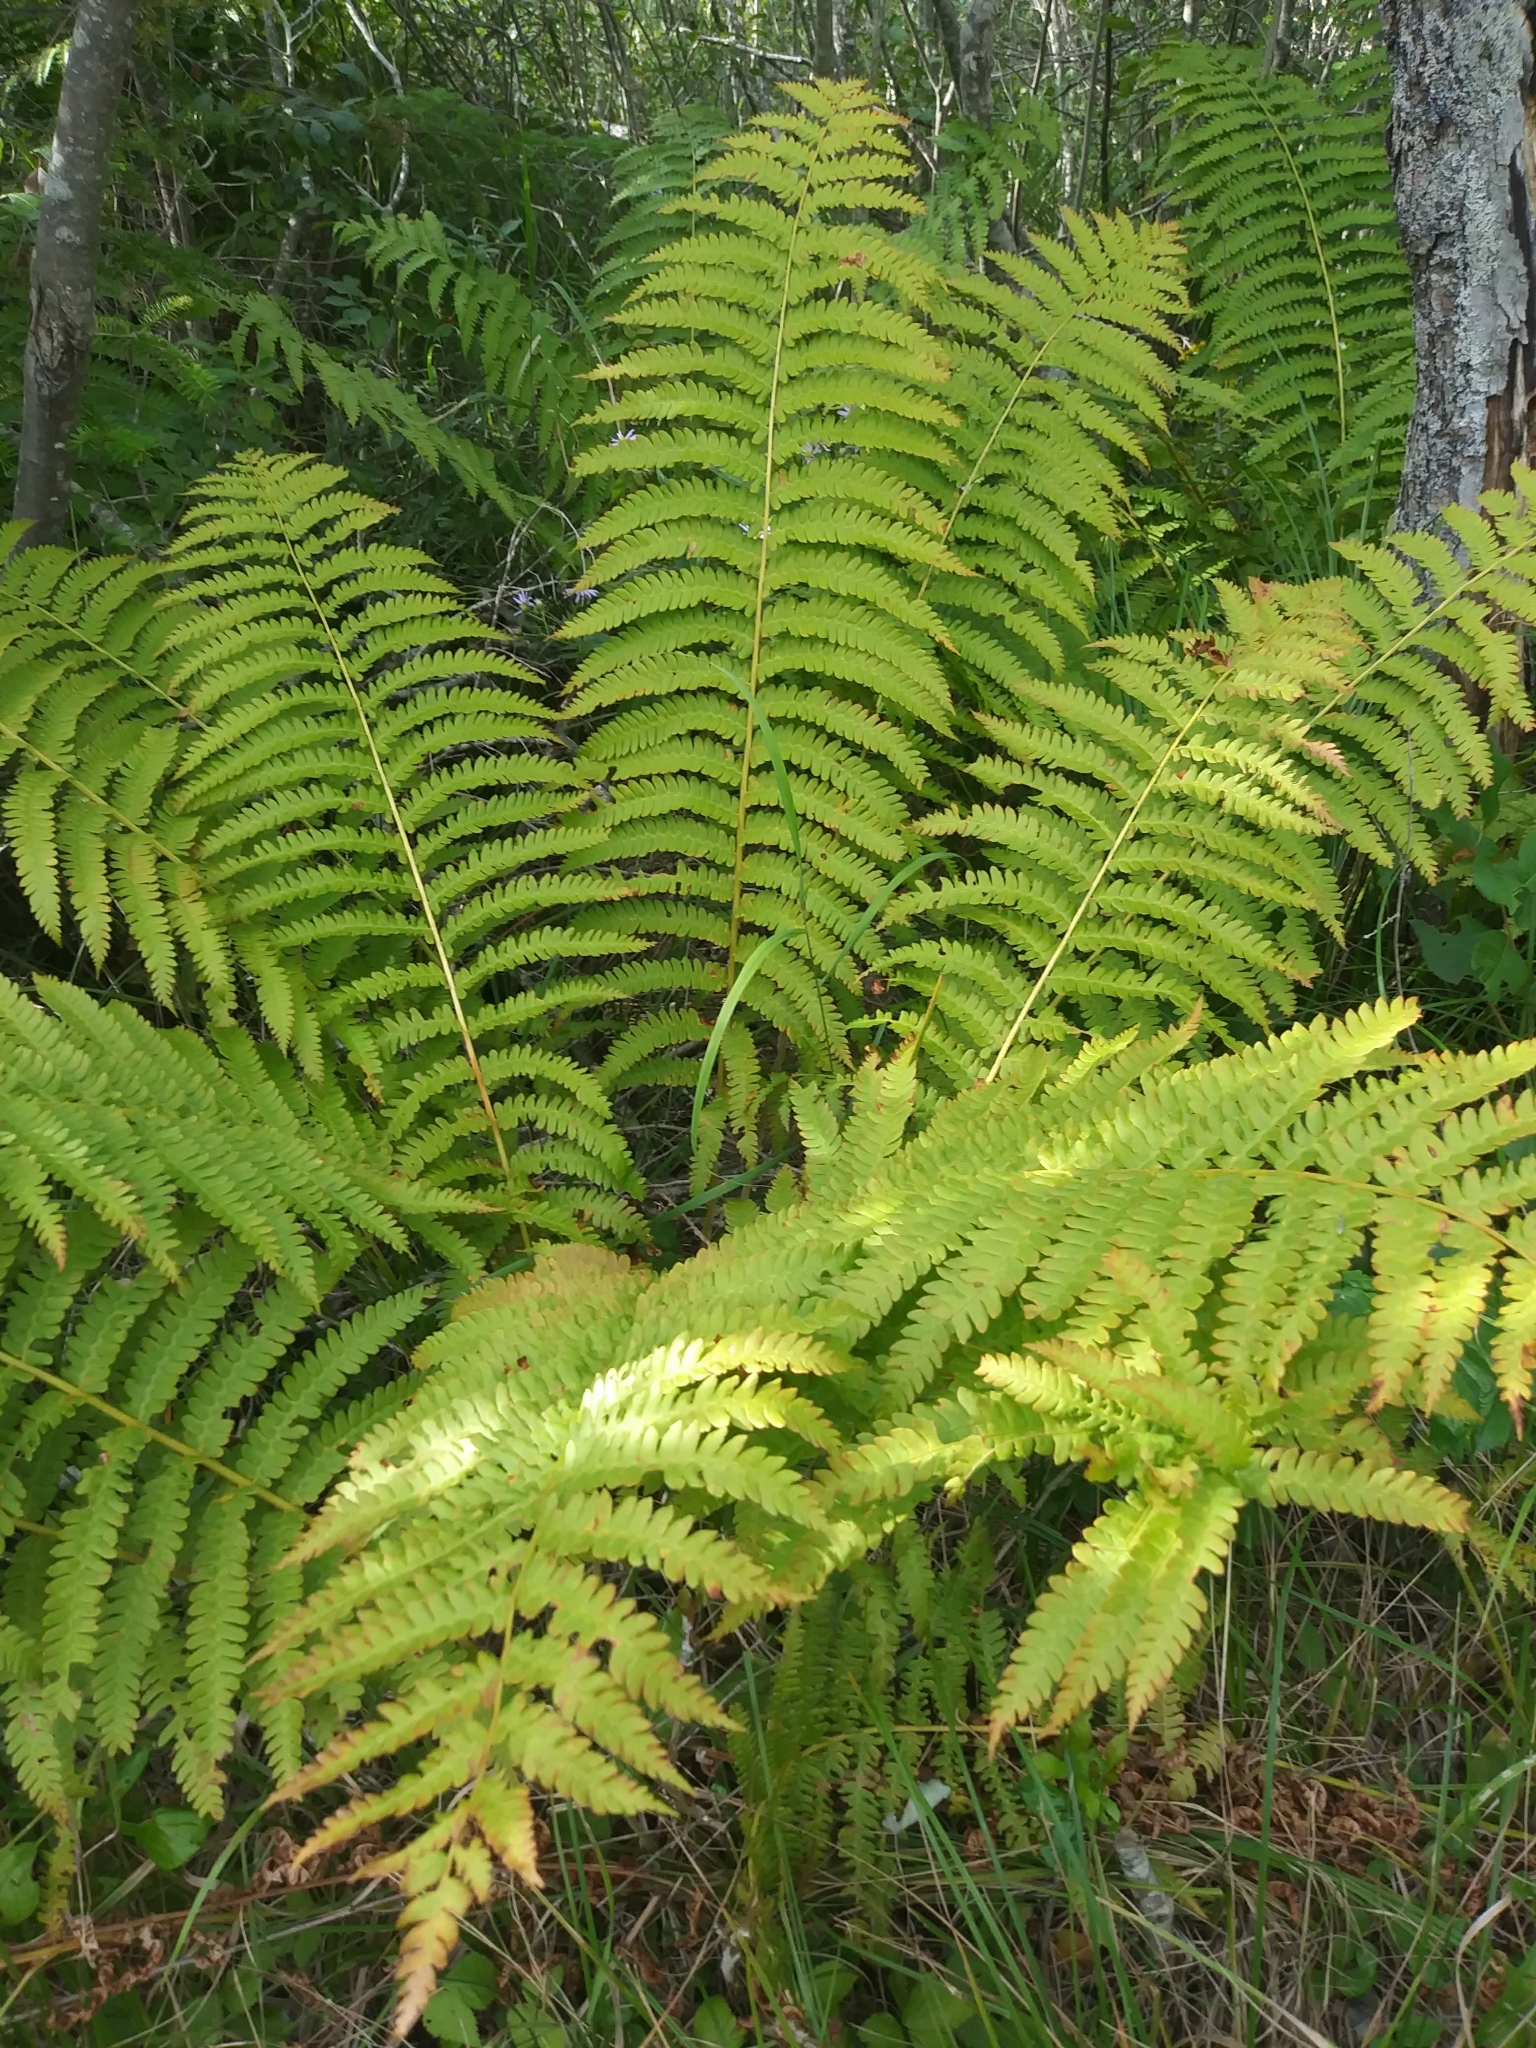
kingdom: Plantae
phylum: Tracheophyta
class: Polypodiopsida
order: Osmundales
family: Osmundaceae
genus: Osmundastrum
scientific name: Osmundastrum cinnamomeum
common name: Cinnamon fern
